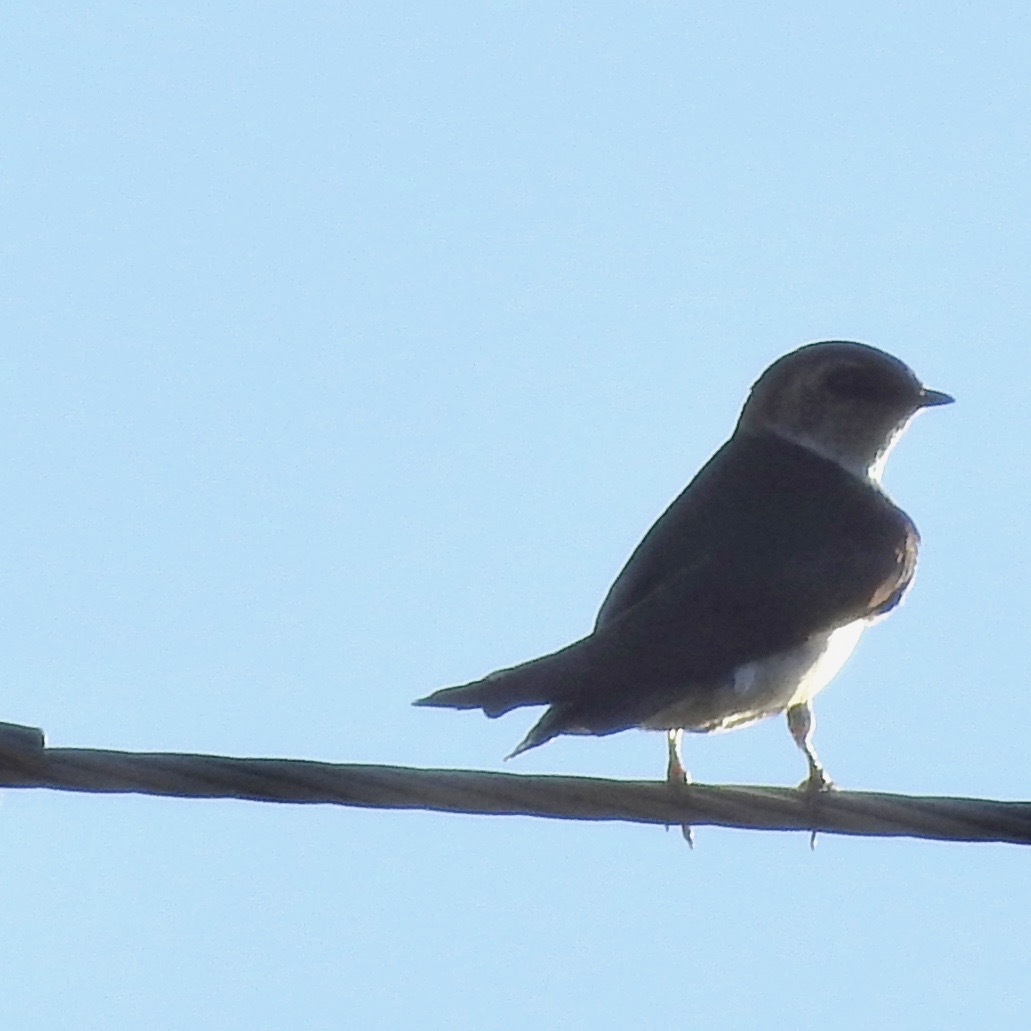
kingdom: Animalia
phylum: Chordata
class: Aves
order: Passeriformes
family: Hirundinidae
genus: Tachycineta
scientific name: Tachycineta thalassina
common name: Violet-green swallow
